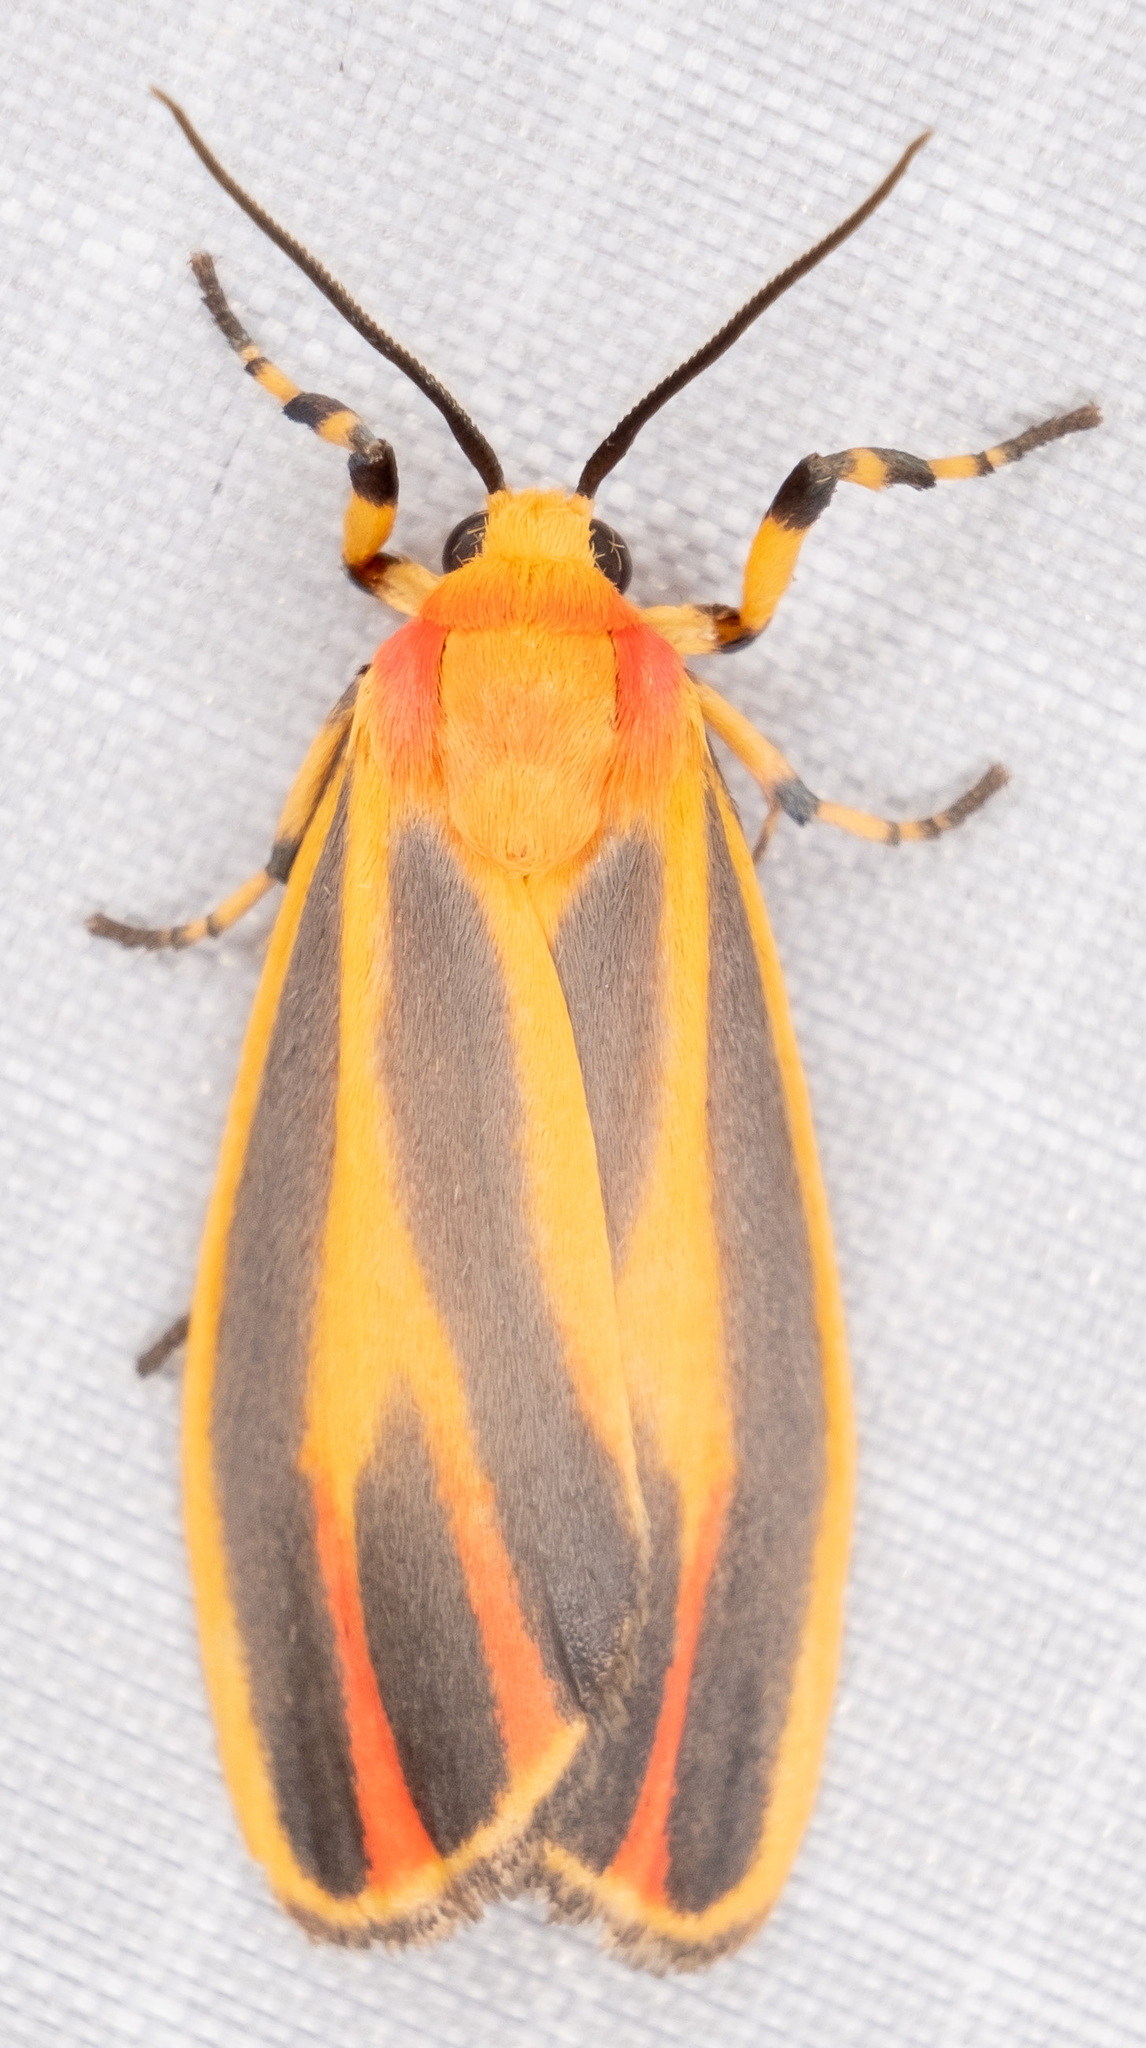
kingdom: Animalia
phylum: Arthropoda
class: Insecta
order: Lepidoptera
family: Erebidae
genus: Hypoprepia
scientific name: Hypoprepia fucosa
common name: Painted lichen moth
